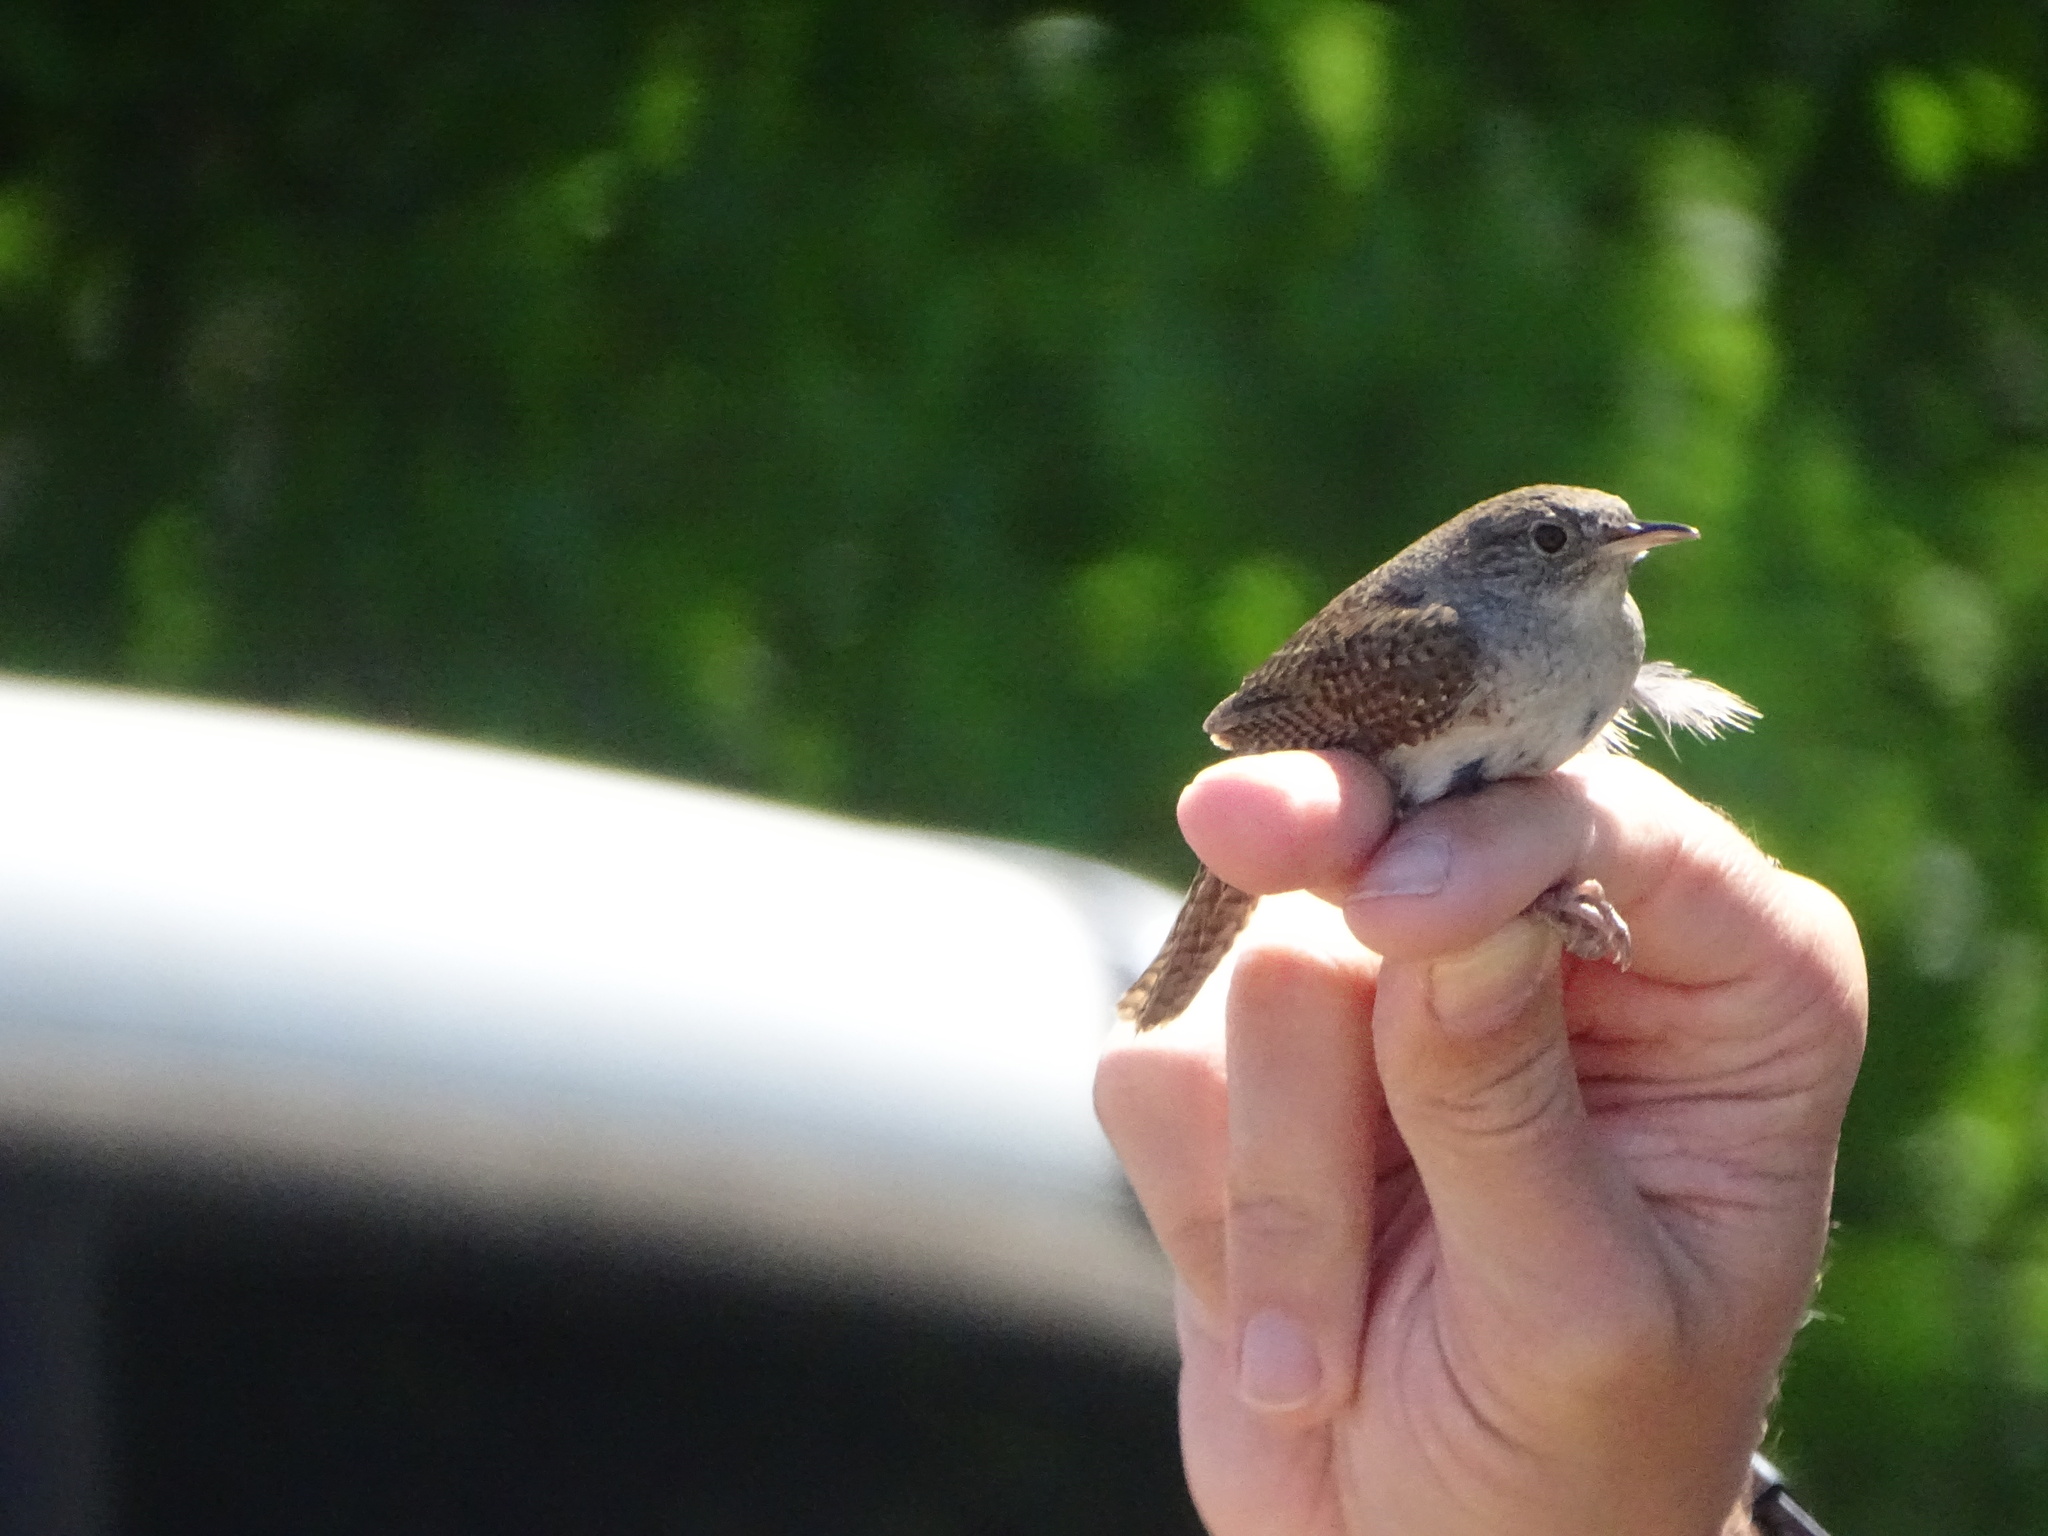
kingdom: Animalia
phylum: Chordata
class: Aves
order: Passeriformes
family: Troglodytidae
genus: Troglodytes
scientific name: Troglodytes aedon
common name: House wren
